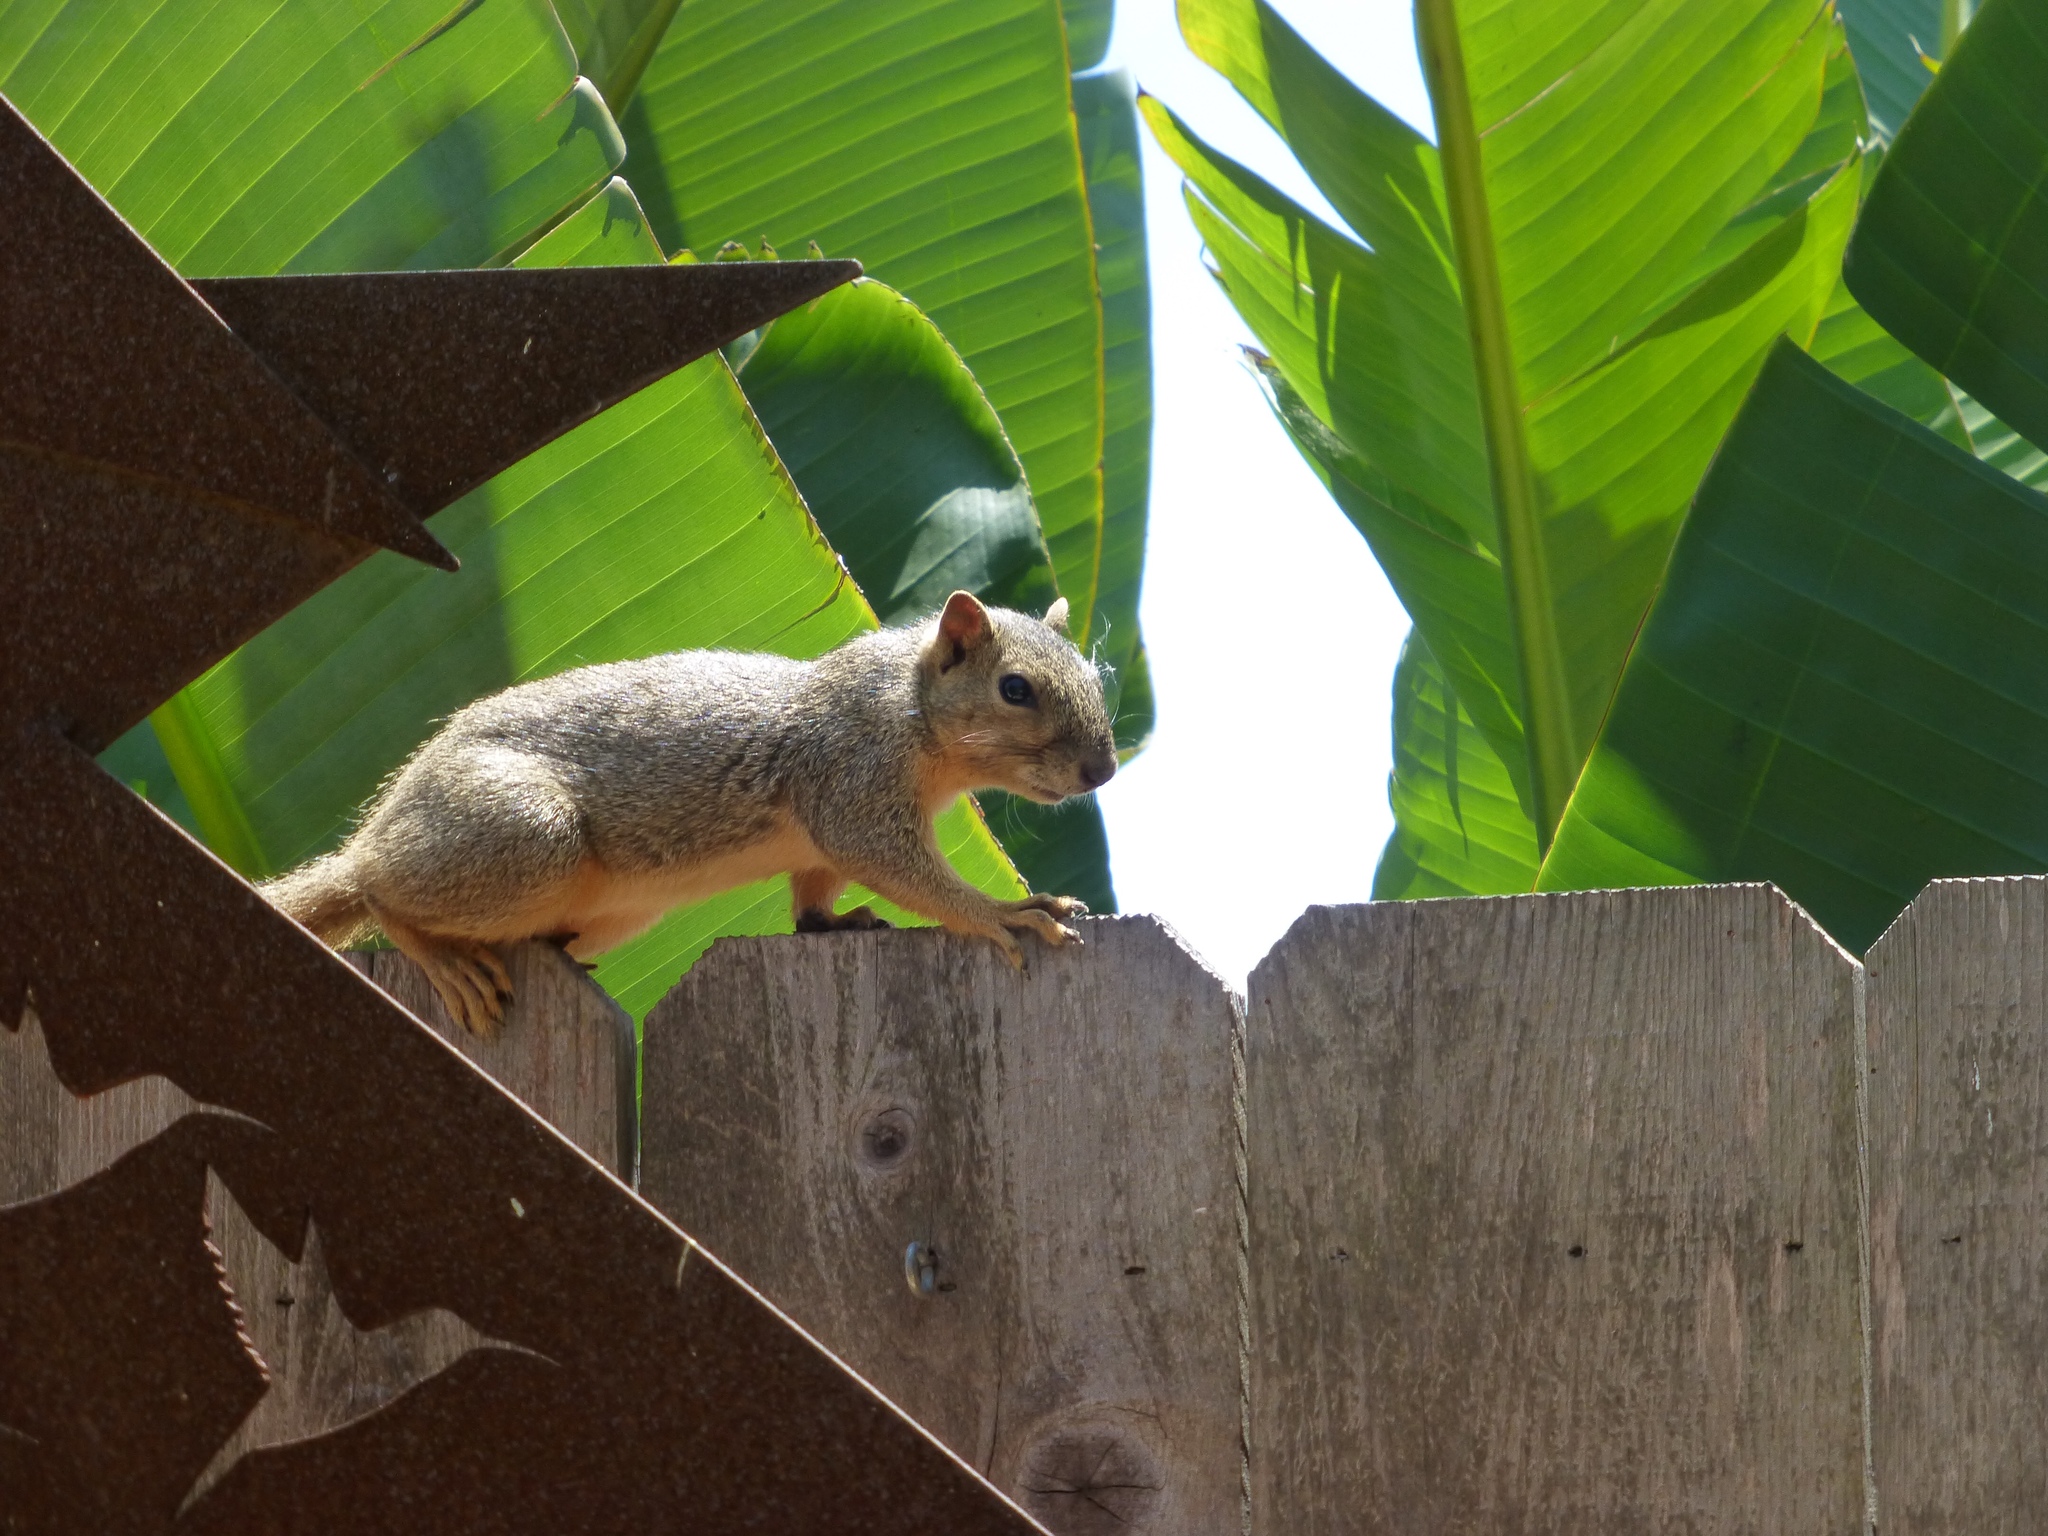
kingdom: Animalia
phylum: Chordata
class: Mammalia
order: Rodentia
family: Sciuridae
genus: Sciurus
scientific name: Sciurus niger
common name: Fox squirrel
